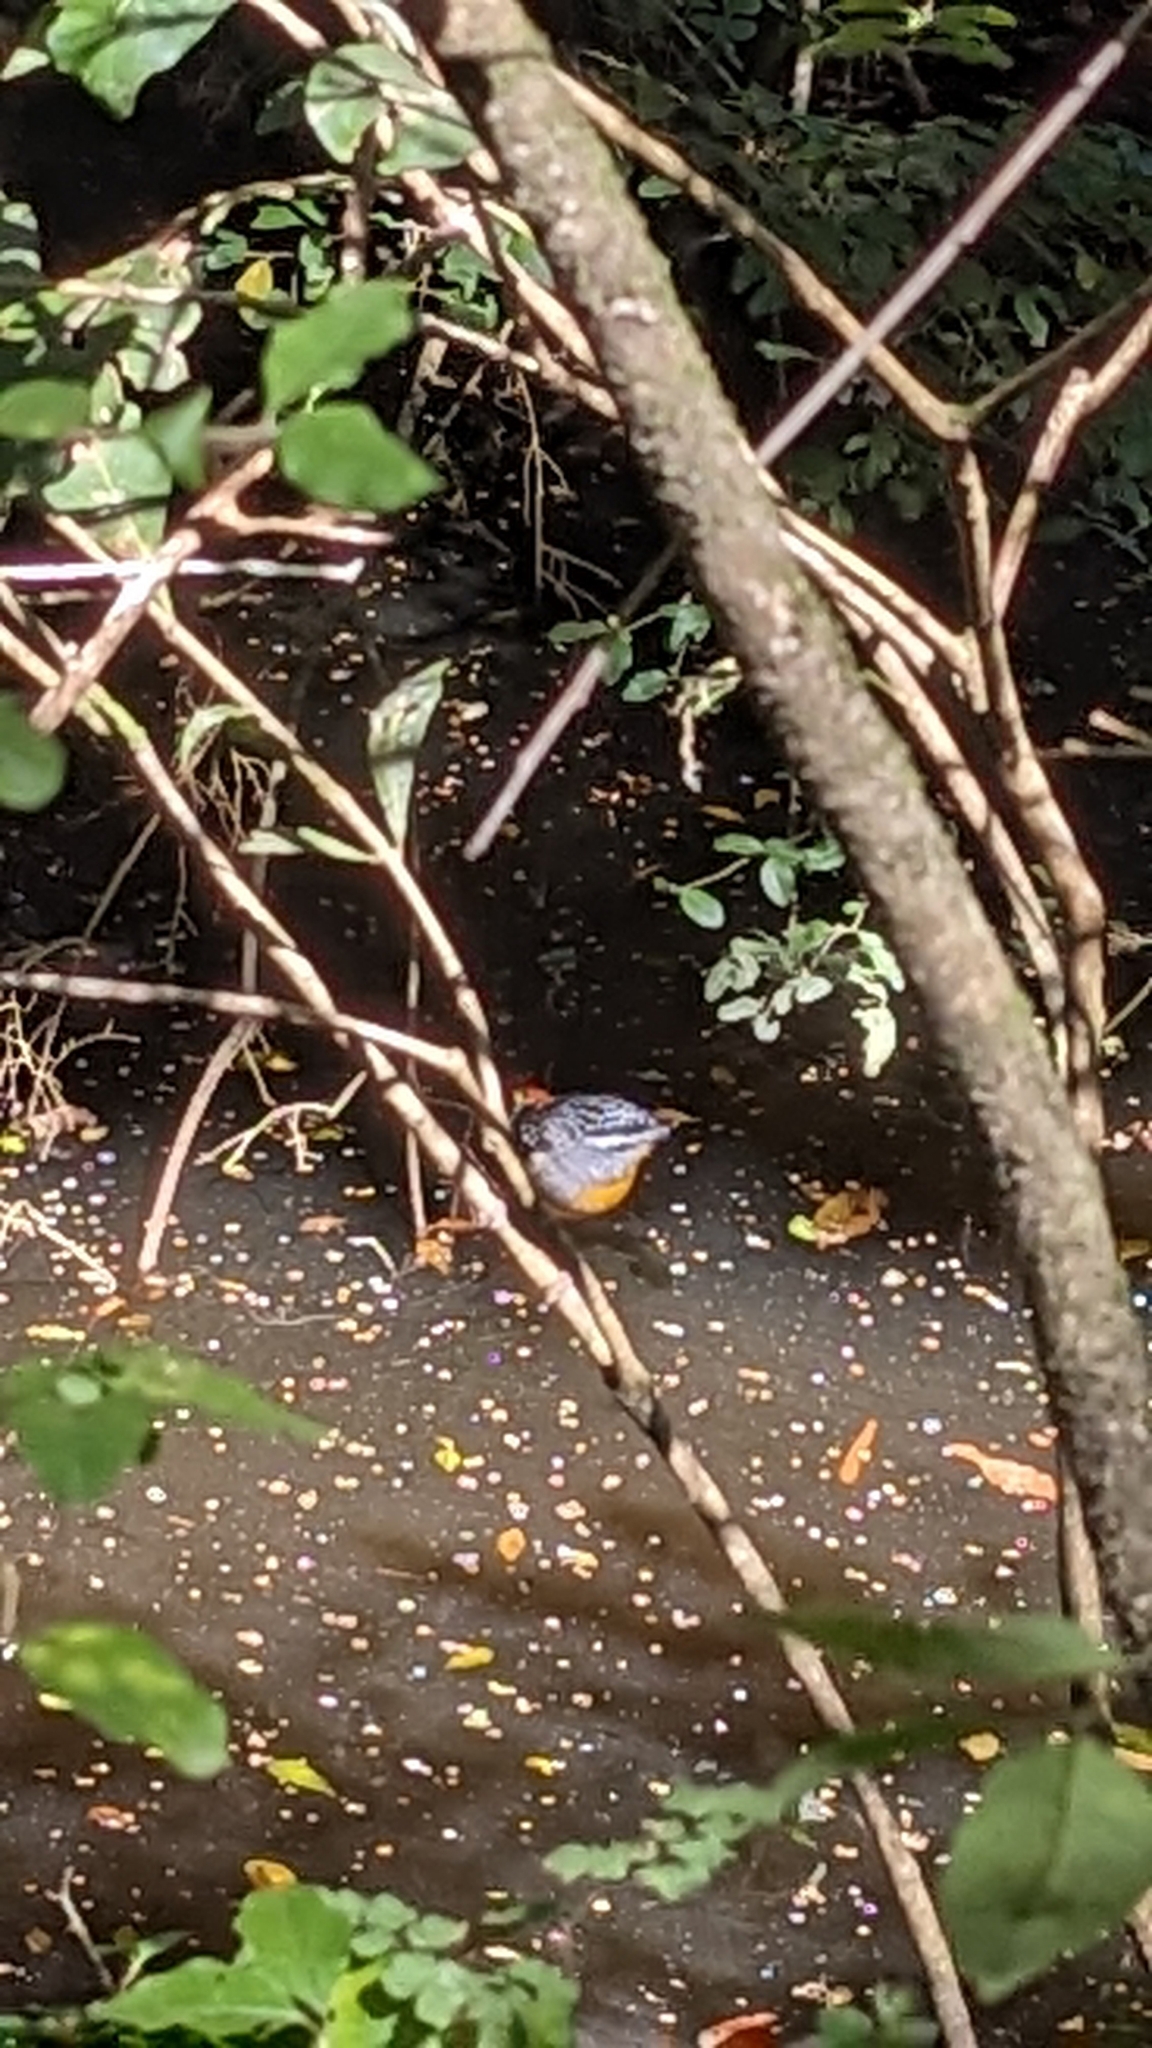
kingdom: Animalia
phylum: Chordata
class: Aves
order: Passeriformes
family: Pardalotidae
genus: Pardalotus
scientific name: Pardalotus punctatus
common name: Spotted pardalote
